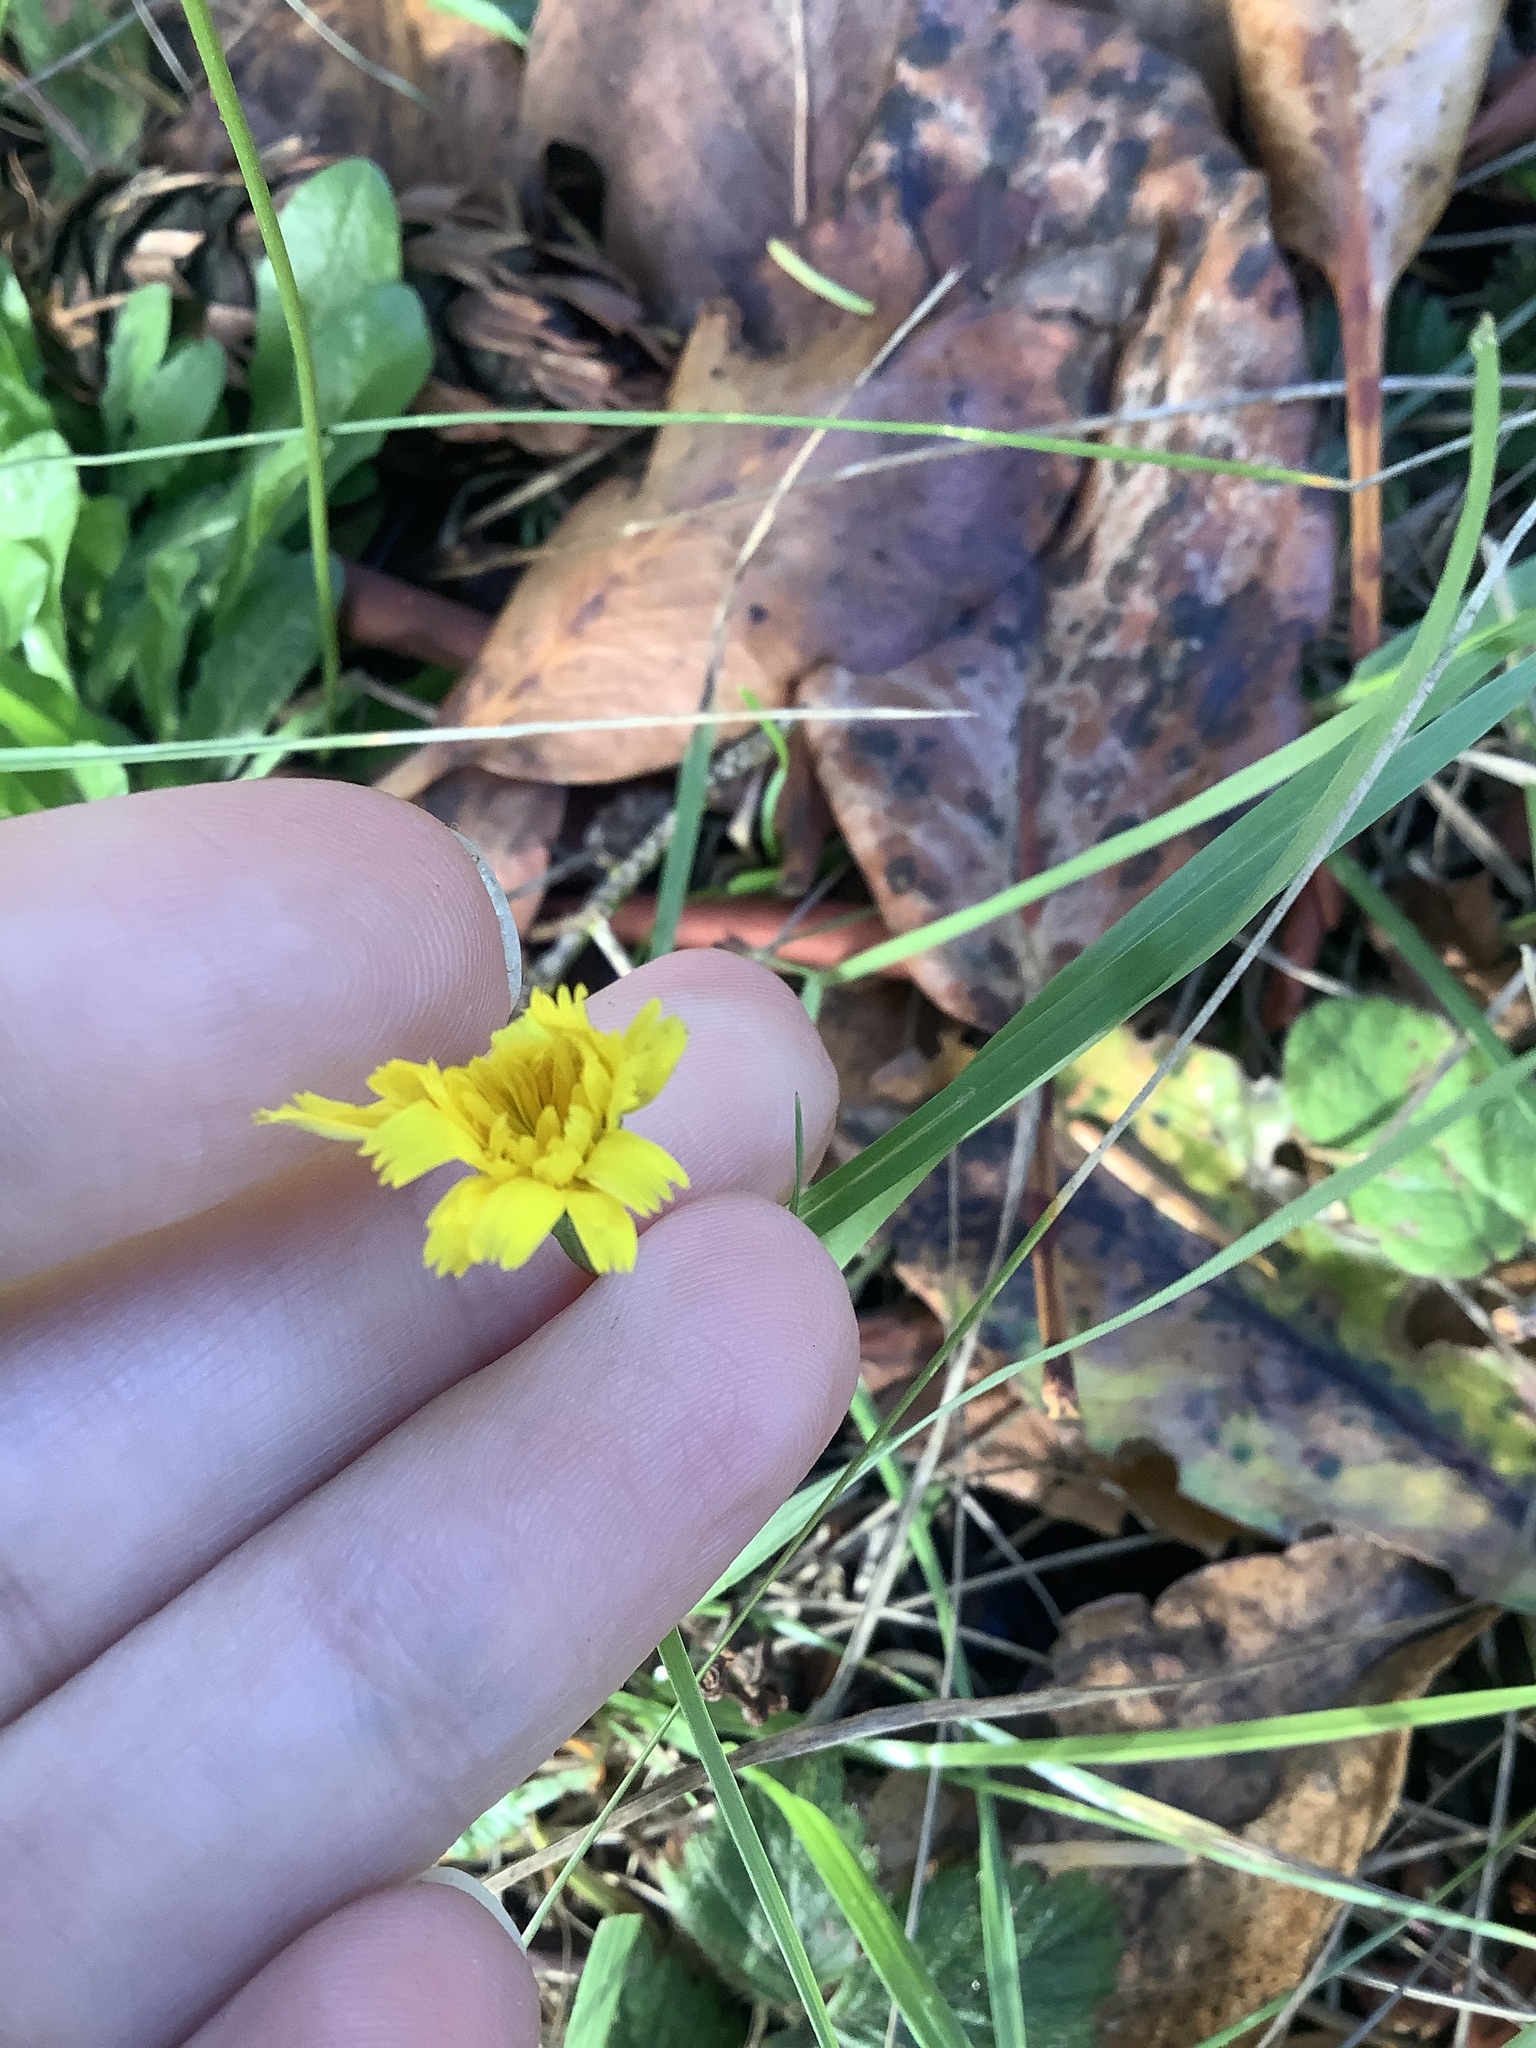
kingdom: Plantae
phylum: Tracheophyta
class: Magnoliopsida
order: Asterales
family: Asteraceae
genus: Hypochaeris
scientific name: Hypochaeris radicata
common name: Flatweed
